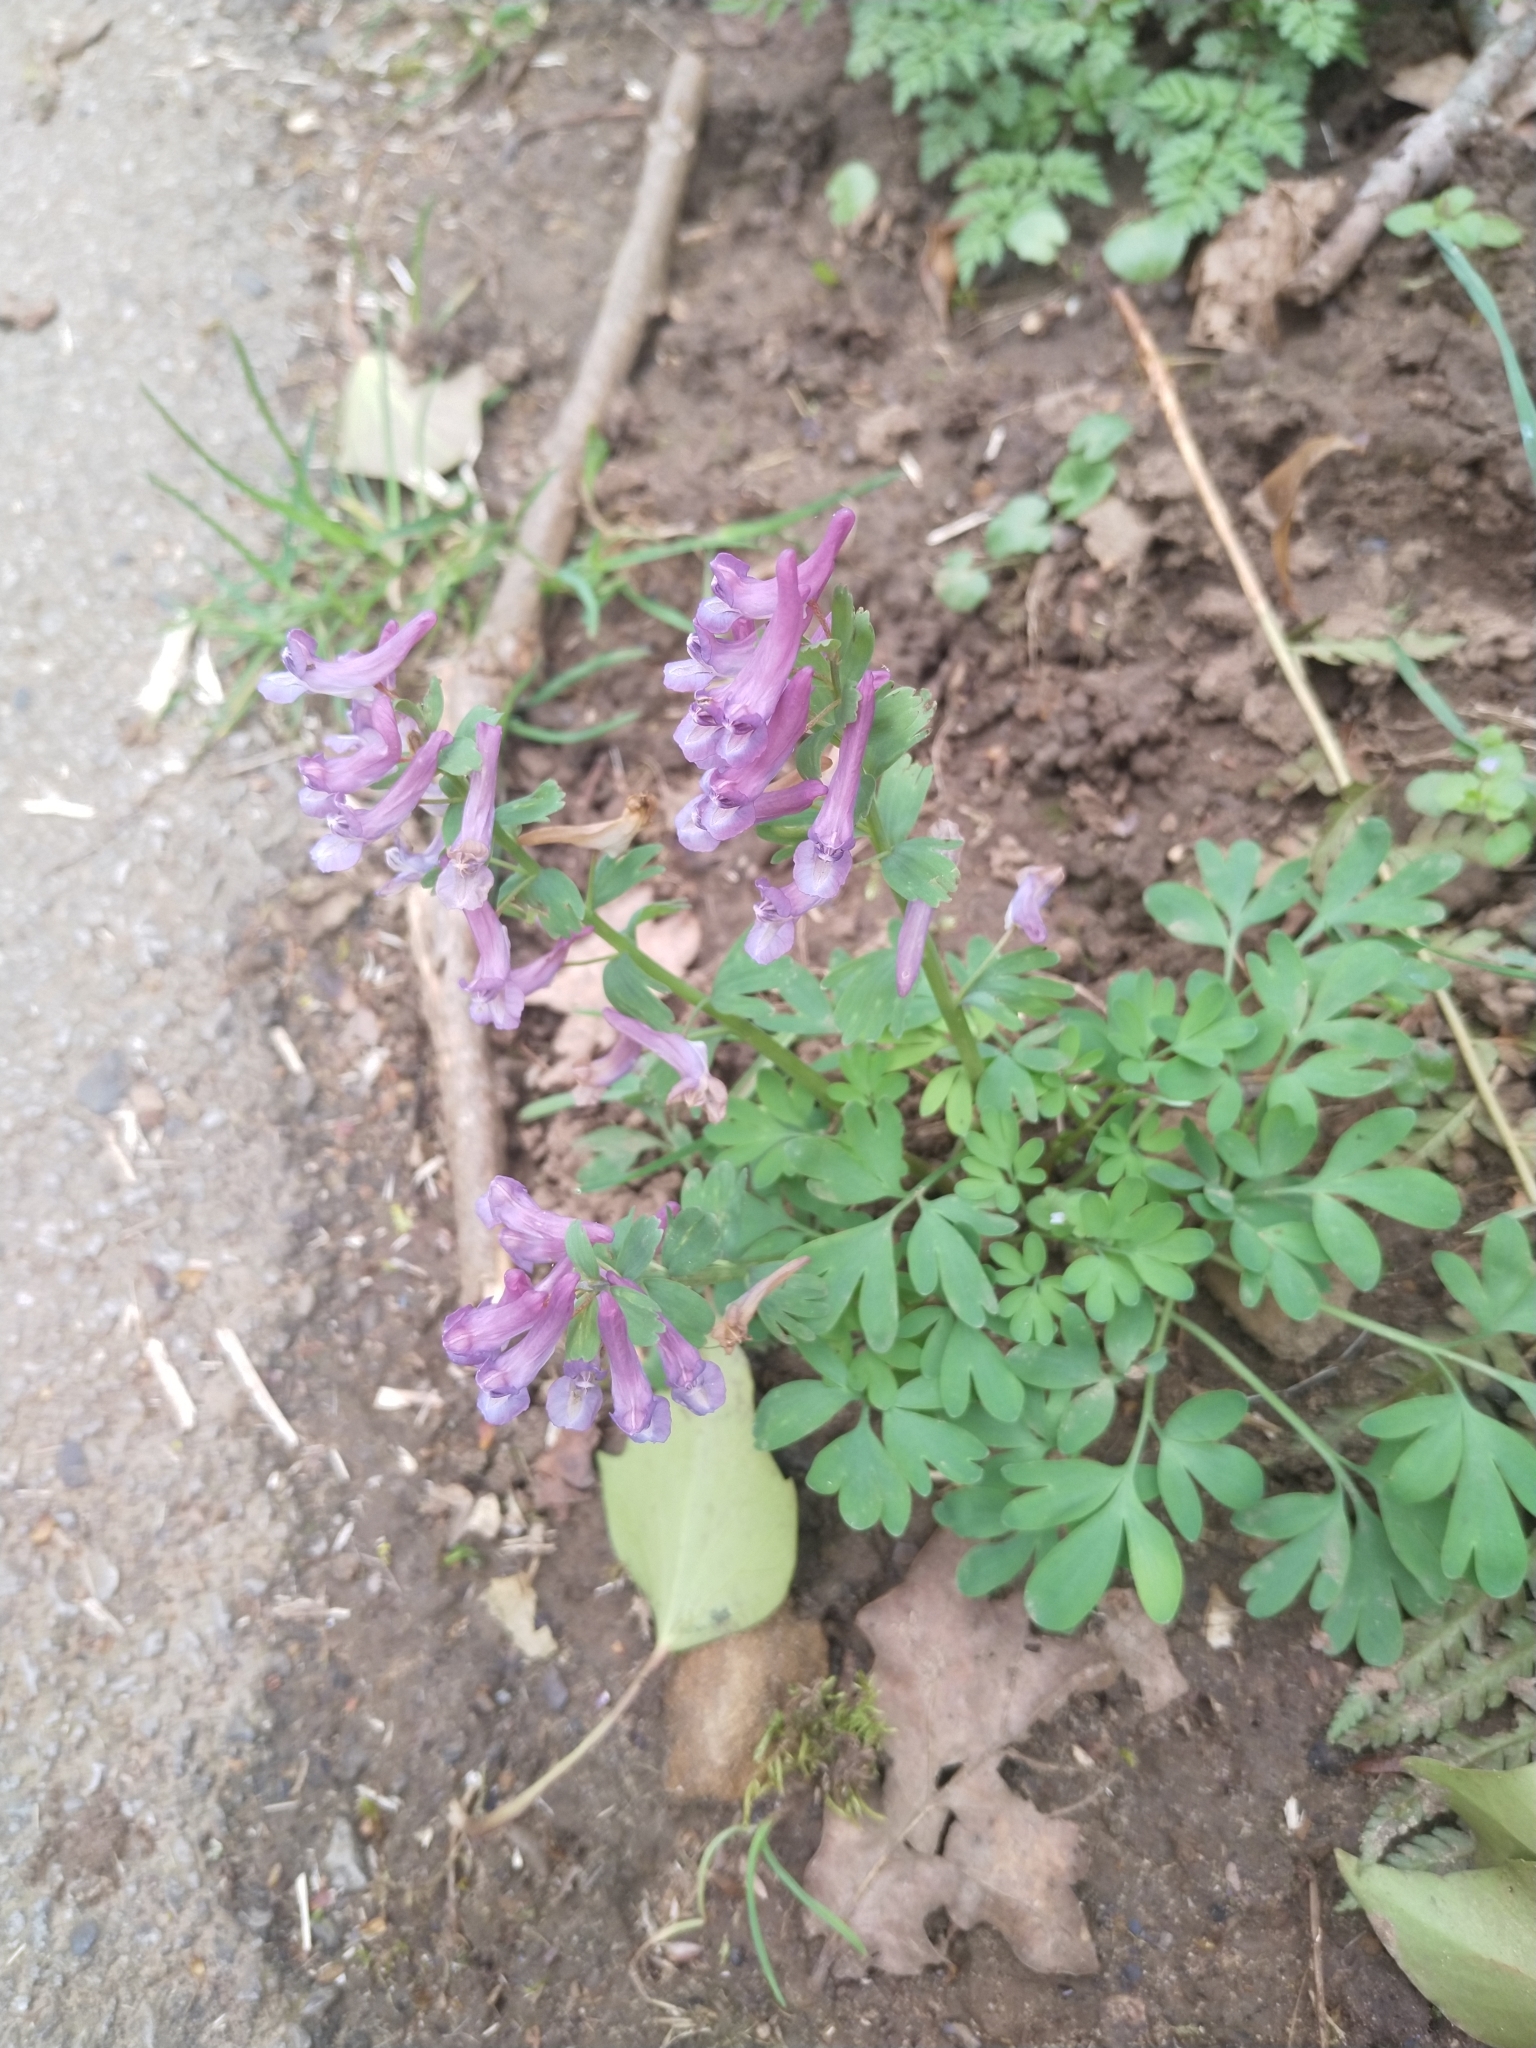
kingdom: Plantae
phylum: Tracheophyta
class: Magnoliopsida
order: Ranunculales
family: Papaveraceae
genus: Corydalis
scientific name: Corydalis solida
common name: Bird-in-a-bush
